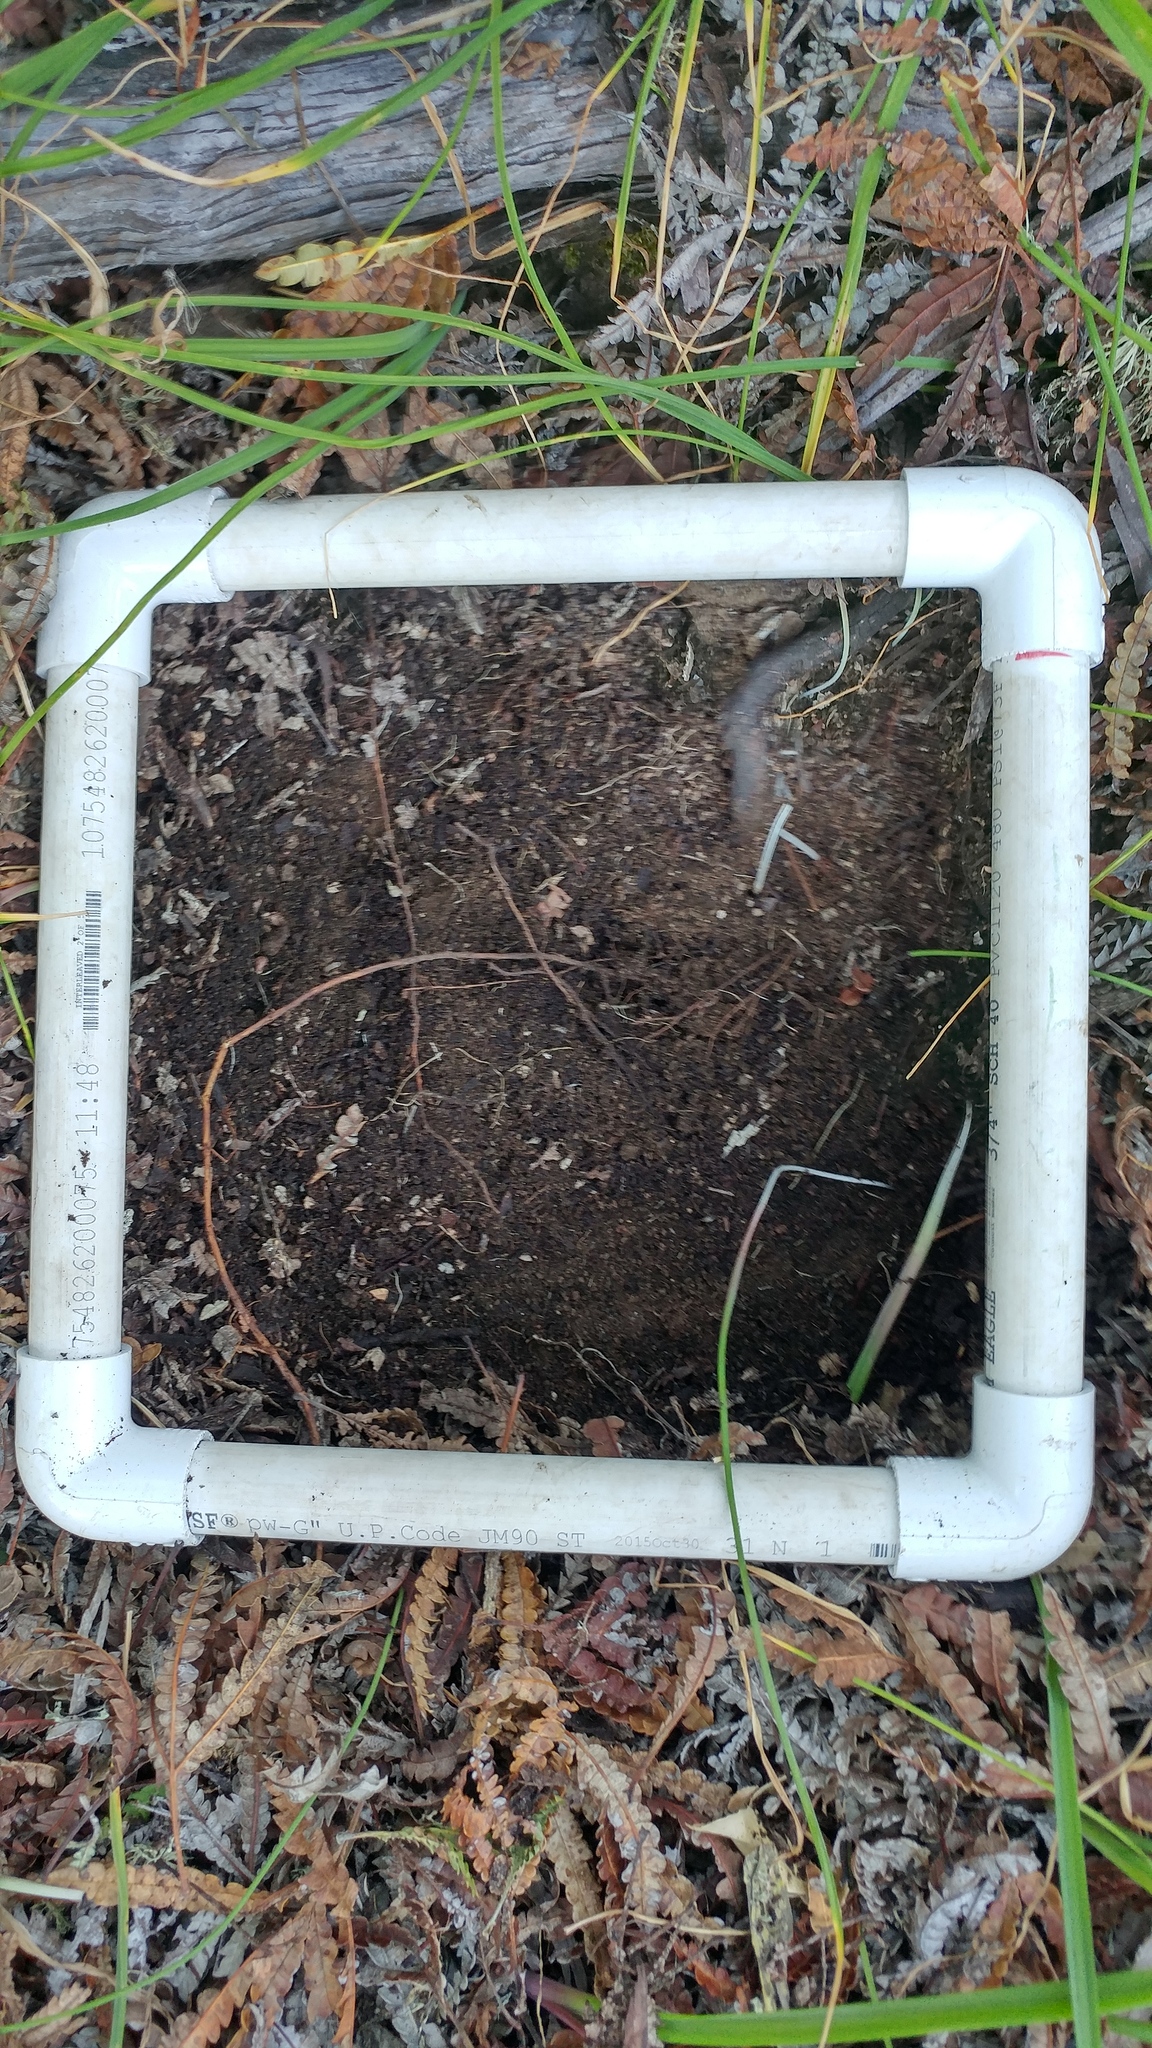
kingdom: Plantae
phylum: Tracheophyta
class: Magnoliopsida
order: Rosales
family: Rosaceae
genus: Lyonothamnus
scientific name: Lyonothamnus floribundus
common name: Catalina ironwood
